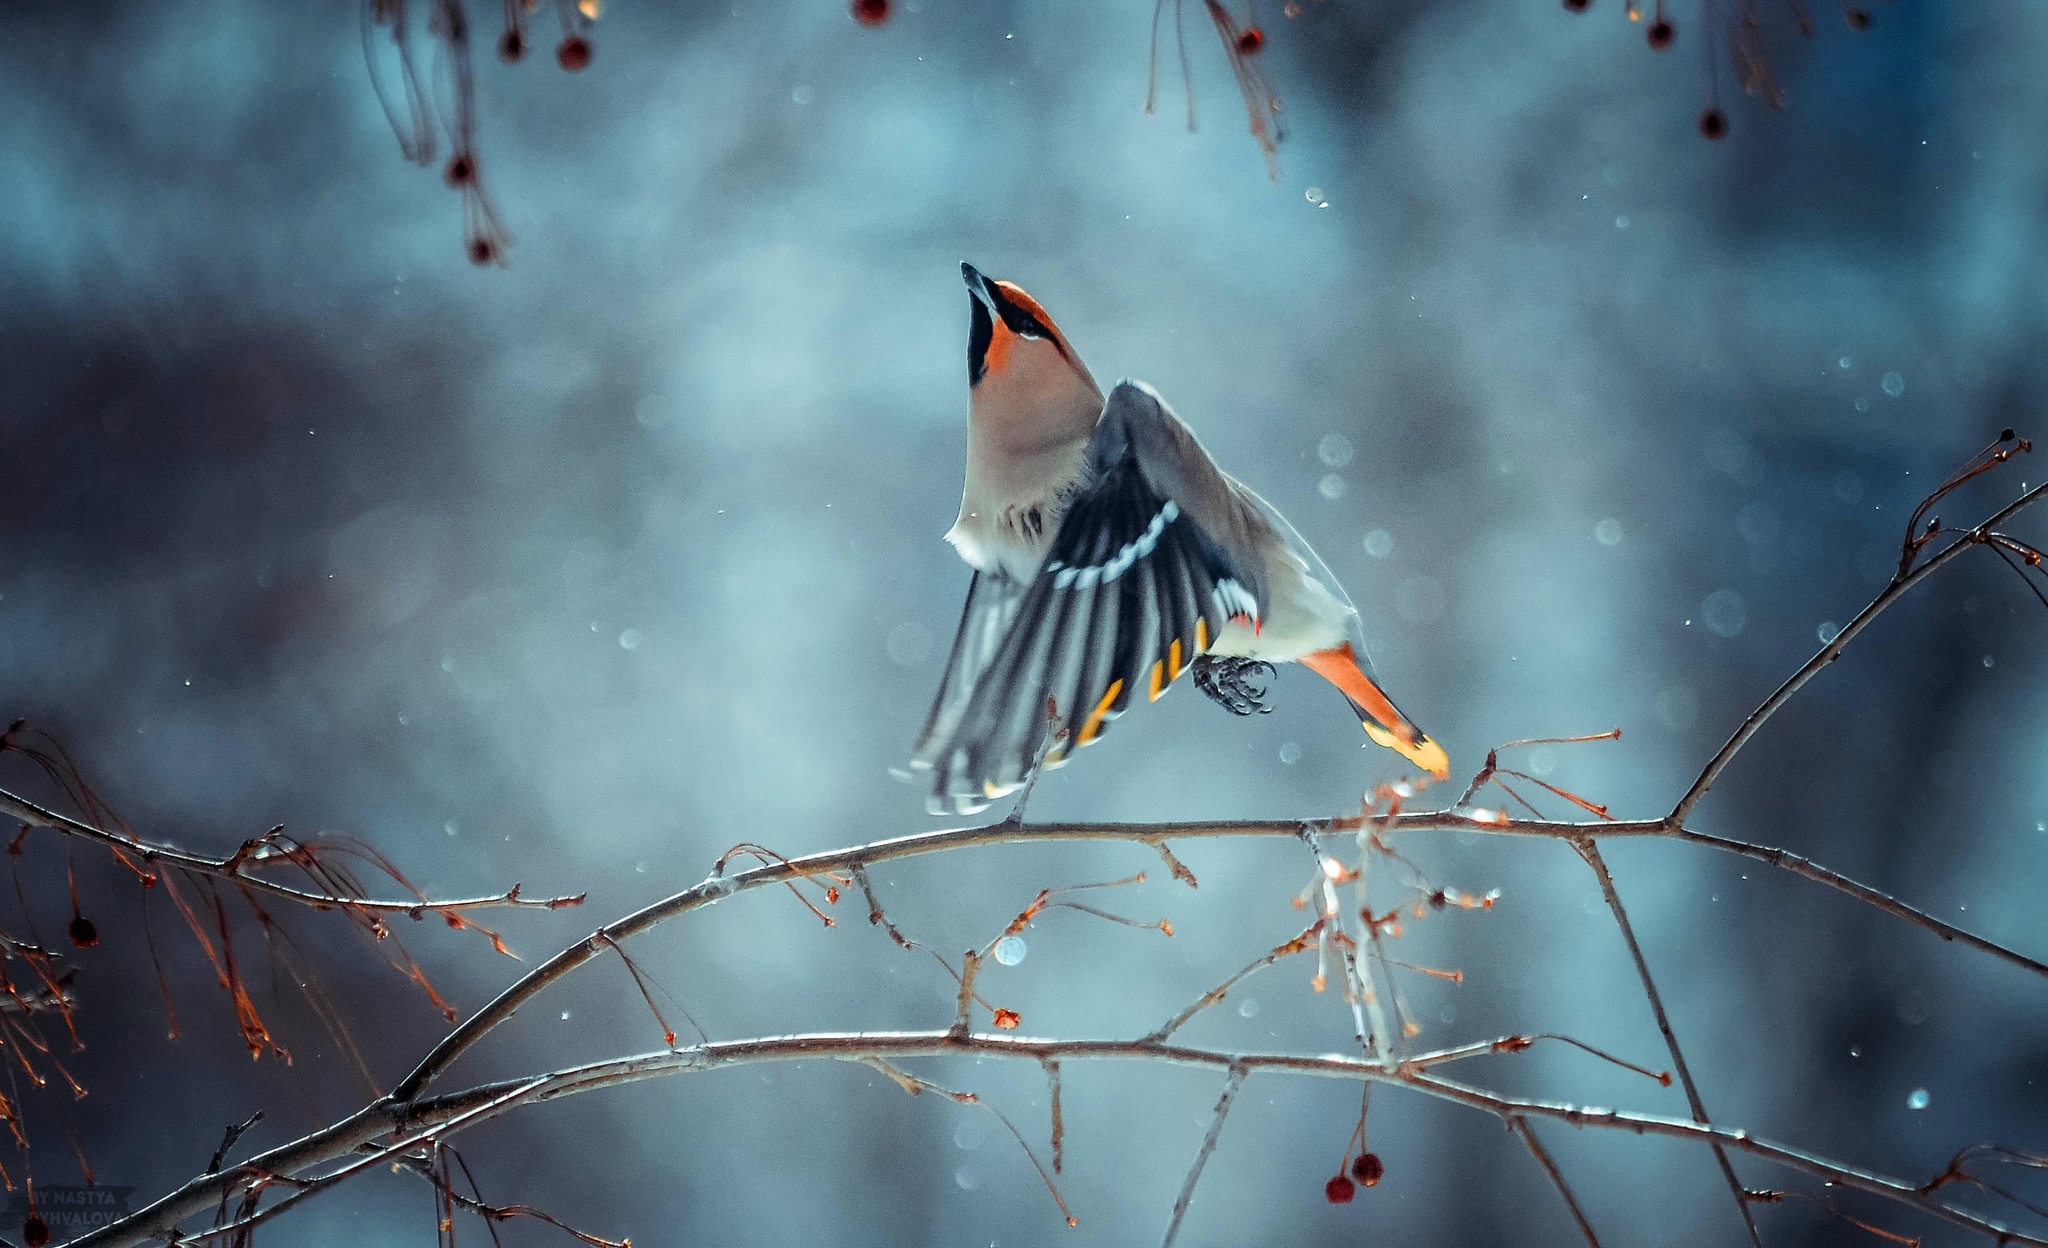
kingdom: Animalia
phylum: Chordata
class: Aves
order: Passeriformes
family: Bombycillidae
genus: Bombycilla
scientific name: Bombycilla garrulus
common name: Bohemian waxwing
